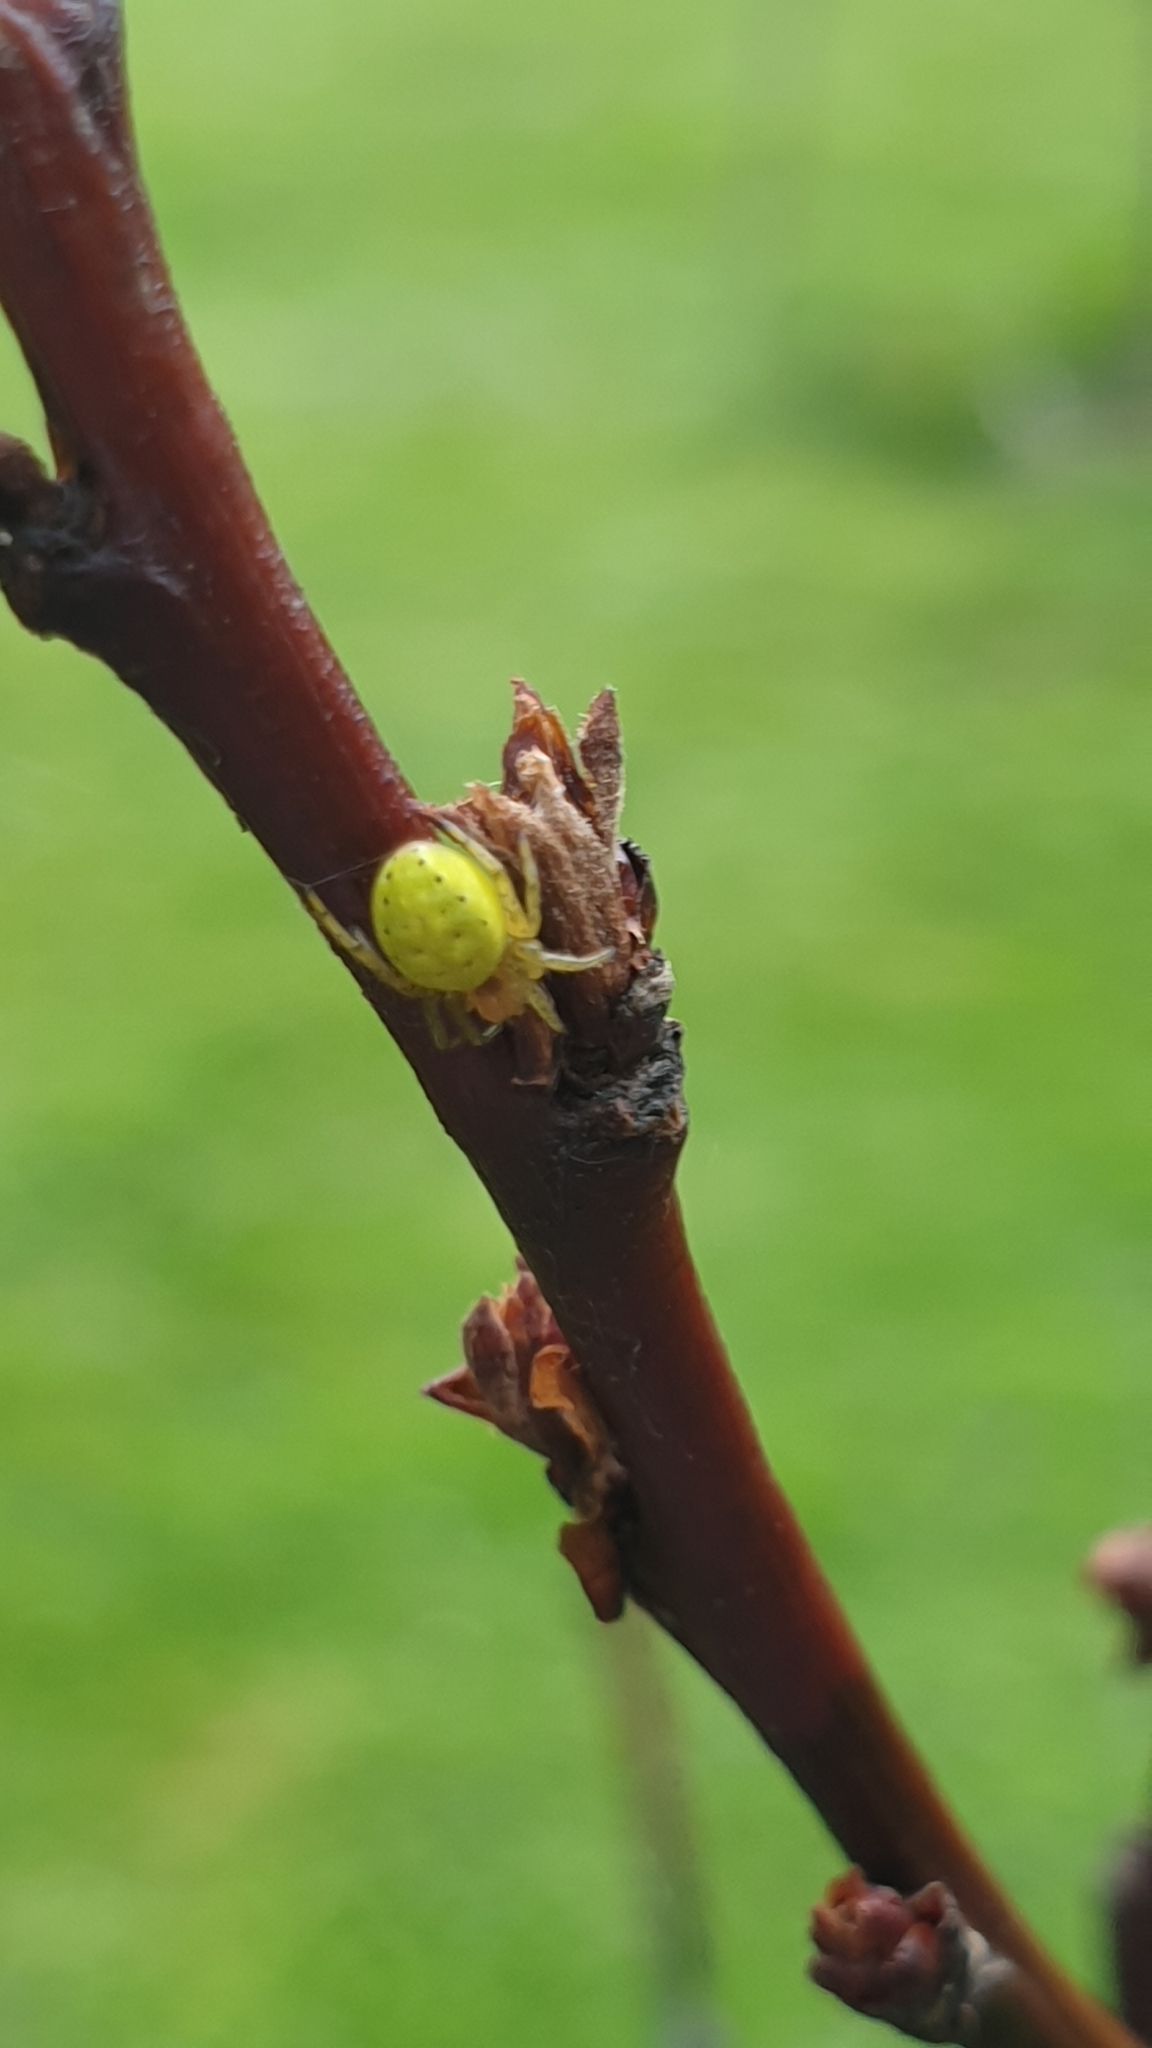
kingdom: Animalia
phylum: Arthropoda
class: Arachnida
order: Araneae
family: Araneidae
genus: Araniella
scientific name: Araniella
